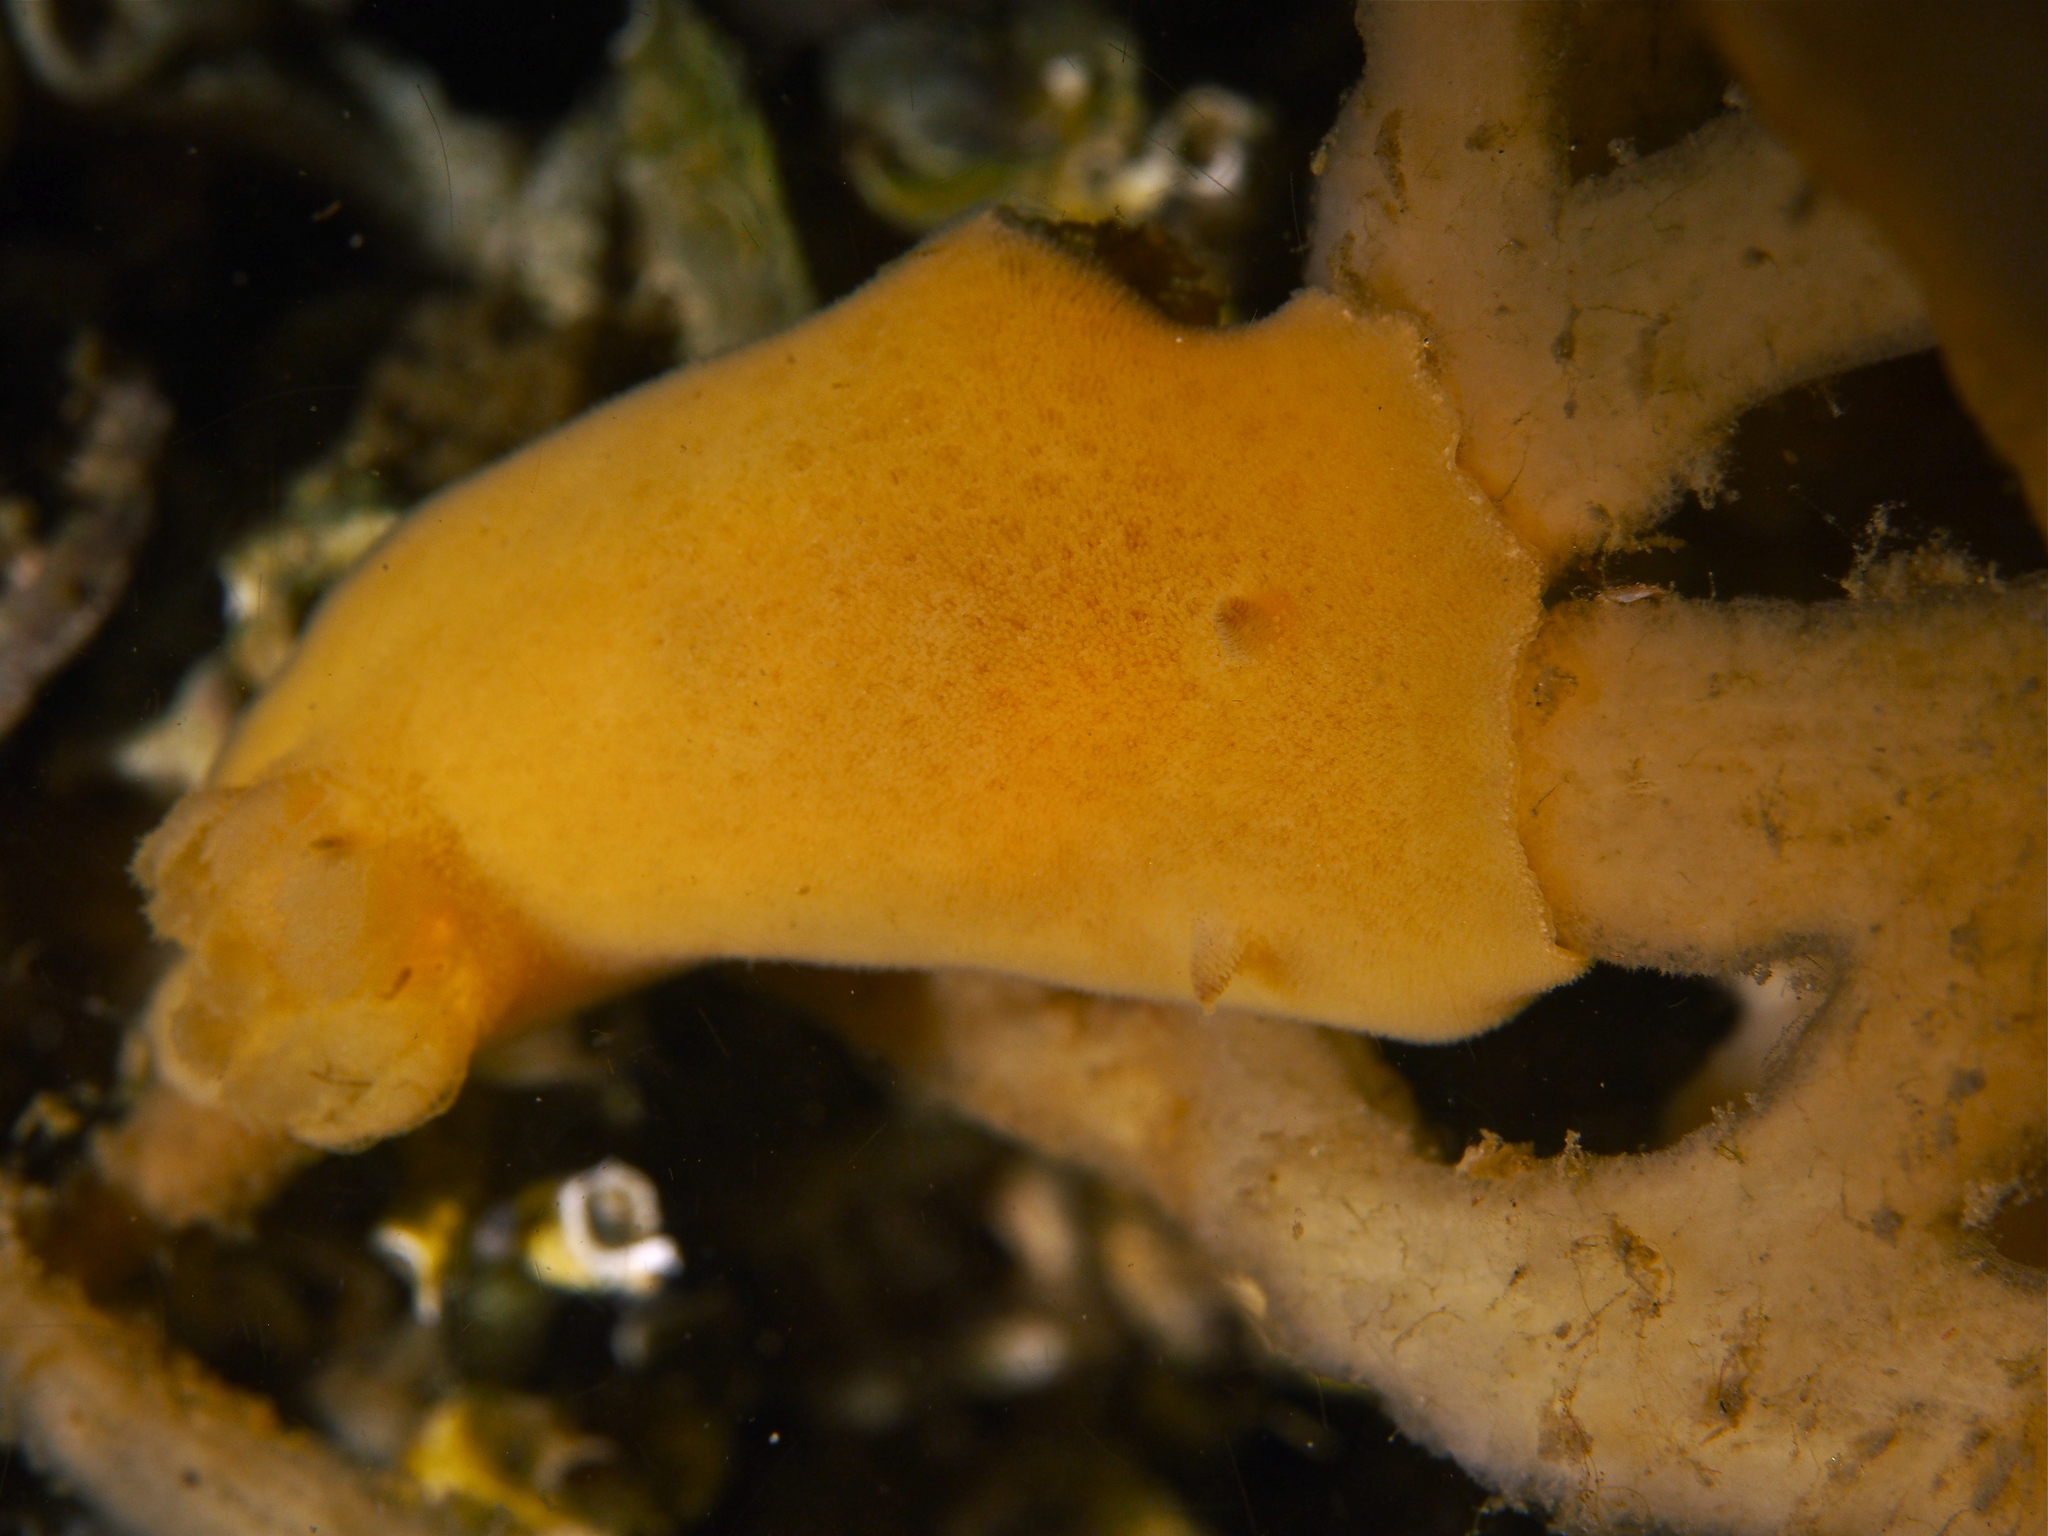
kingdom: Animalia
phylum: Mollusca
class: Gastropoda
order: Nudibranchia
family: Discodorididae
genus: Jorunna
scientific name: Jorunna tomentosa
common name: Grey sea slug
